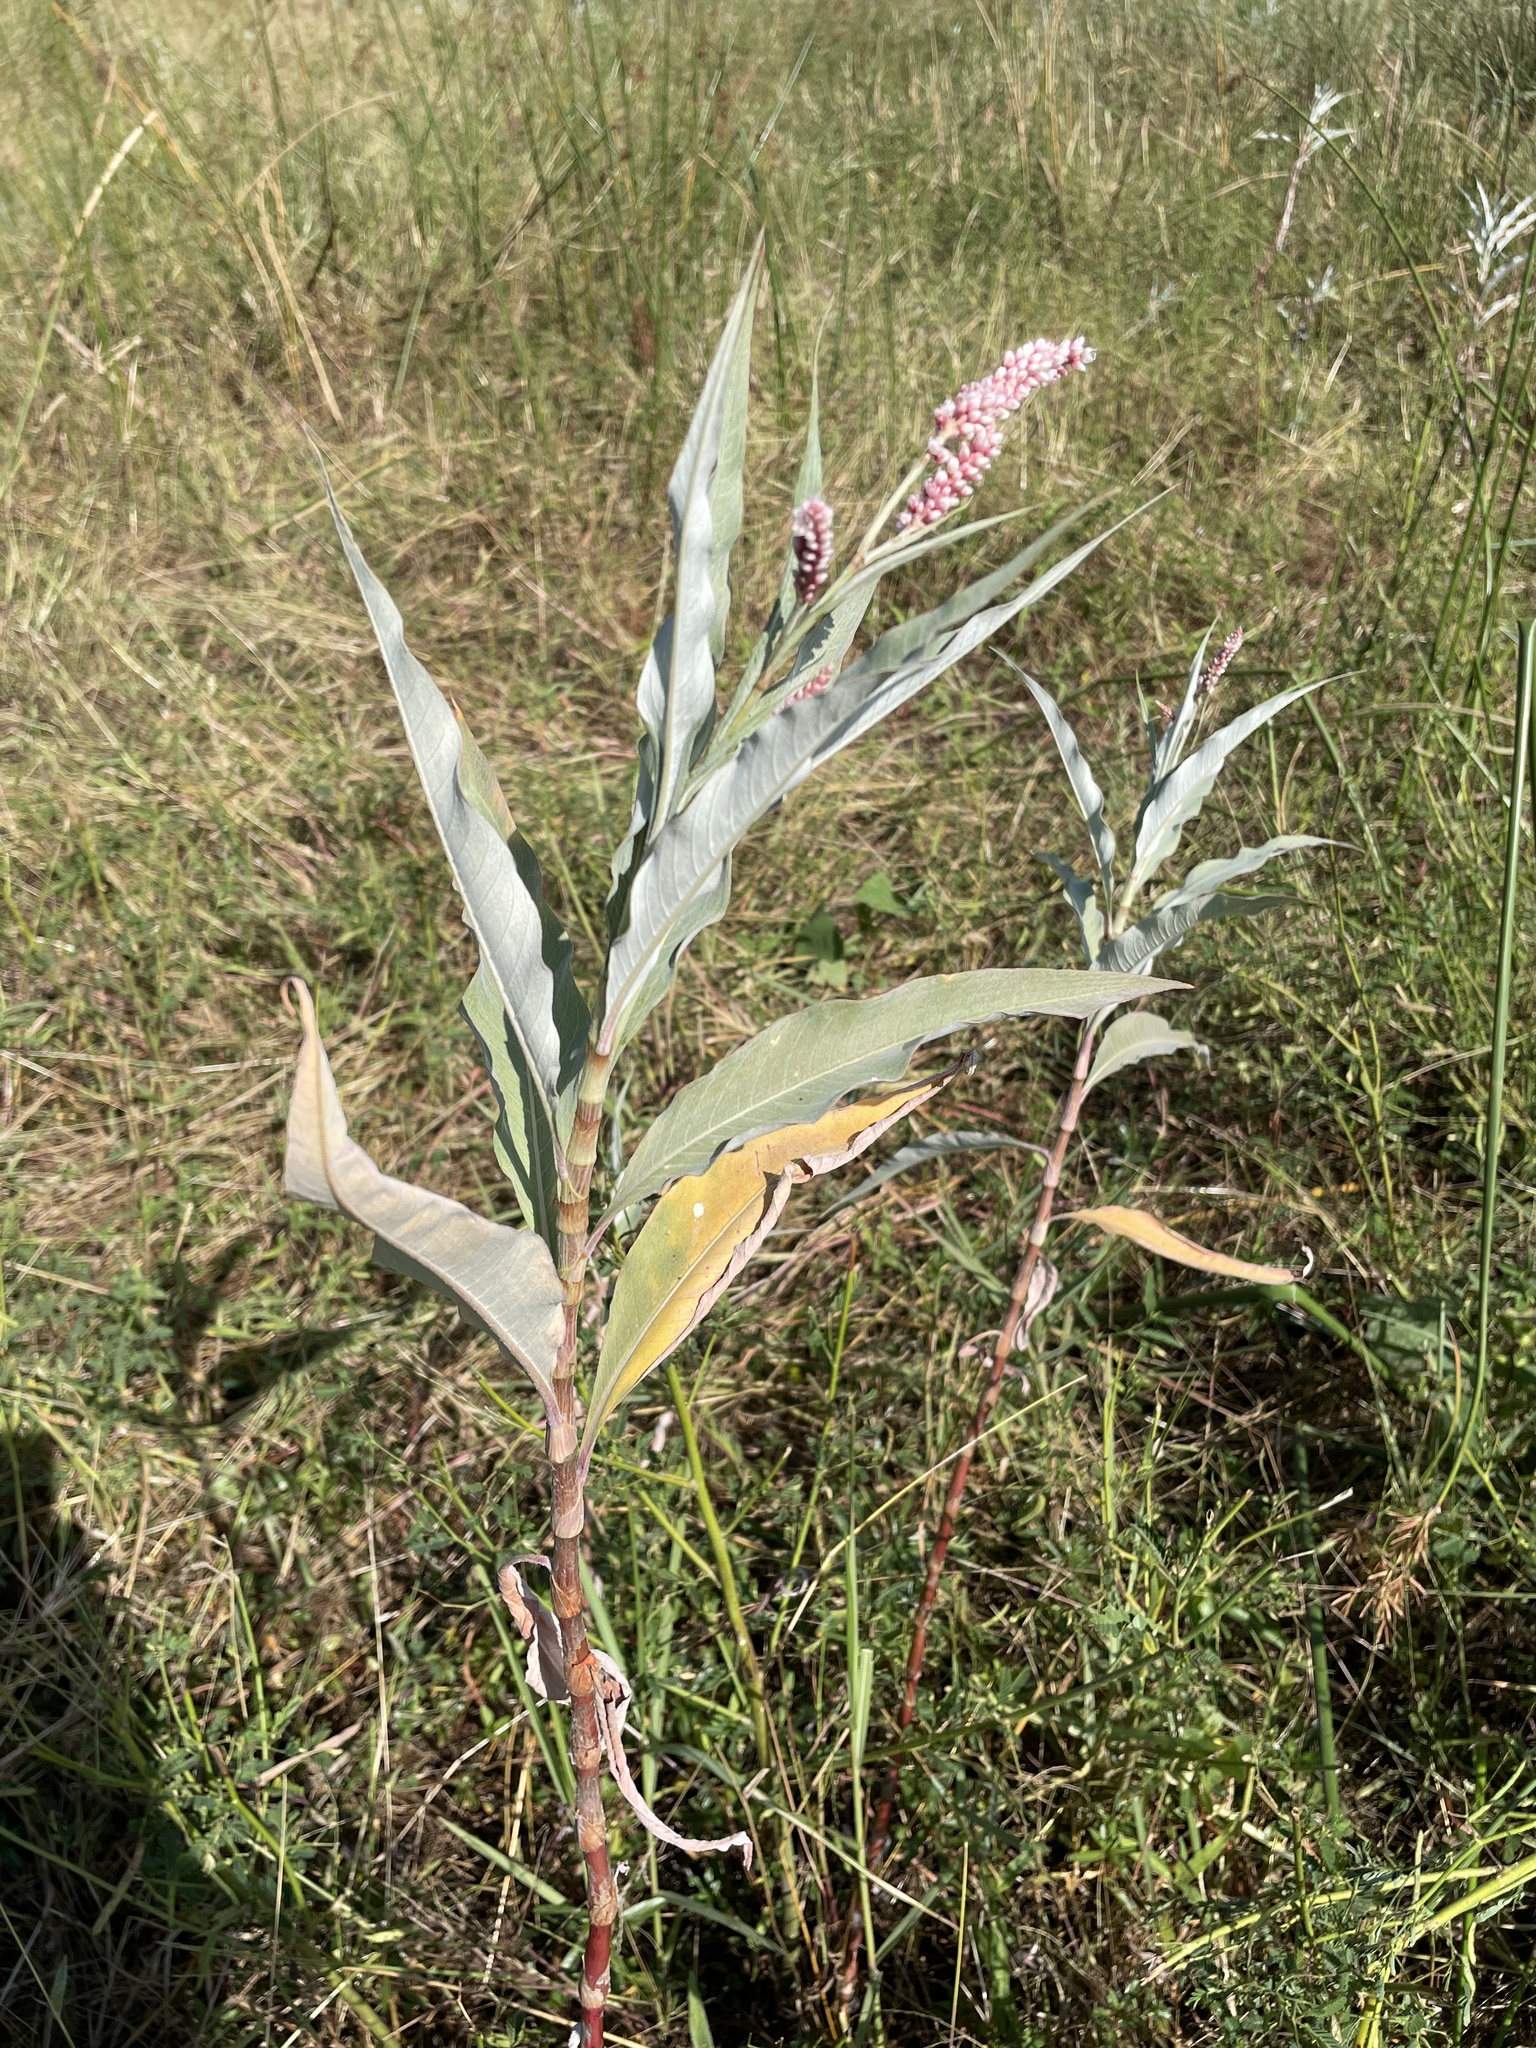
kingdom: Plantae
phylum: Tracheophyta
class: Magnoliopsida
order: Caryophyllales
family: Polygonaceae
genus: Persicaria
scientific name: Persicaria senegalensis
